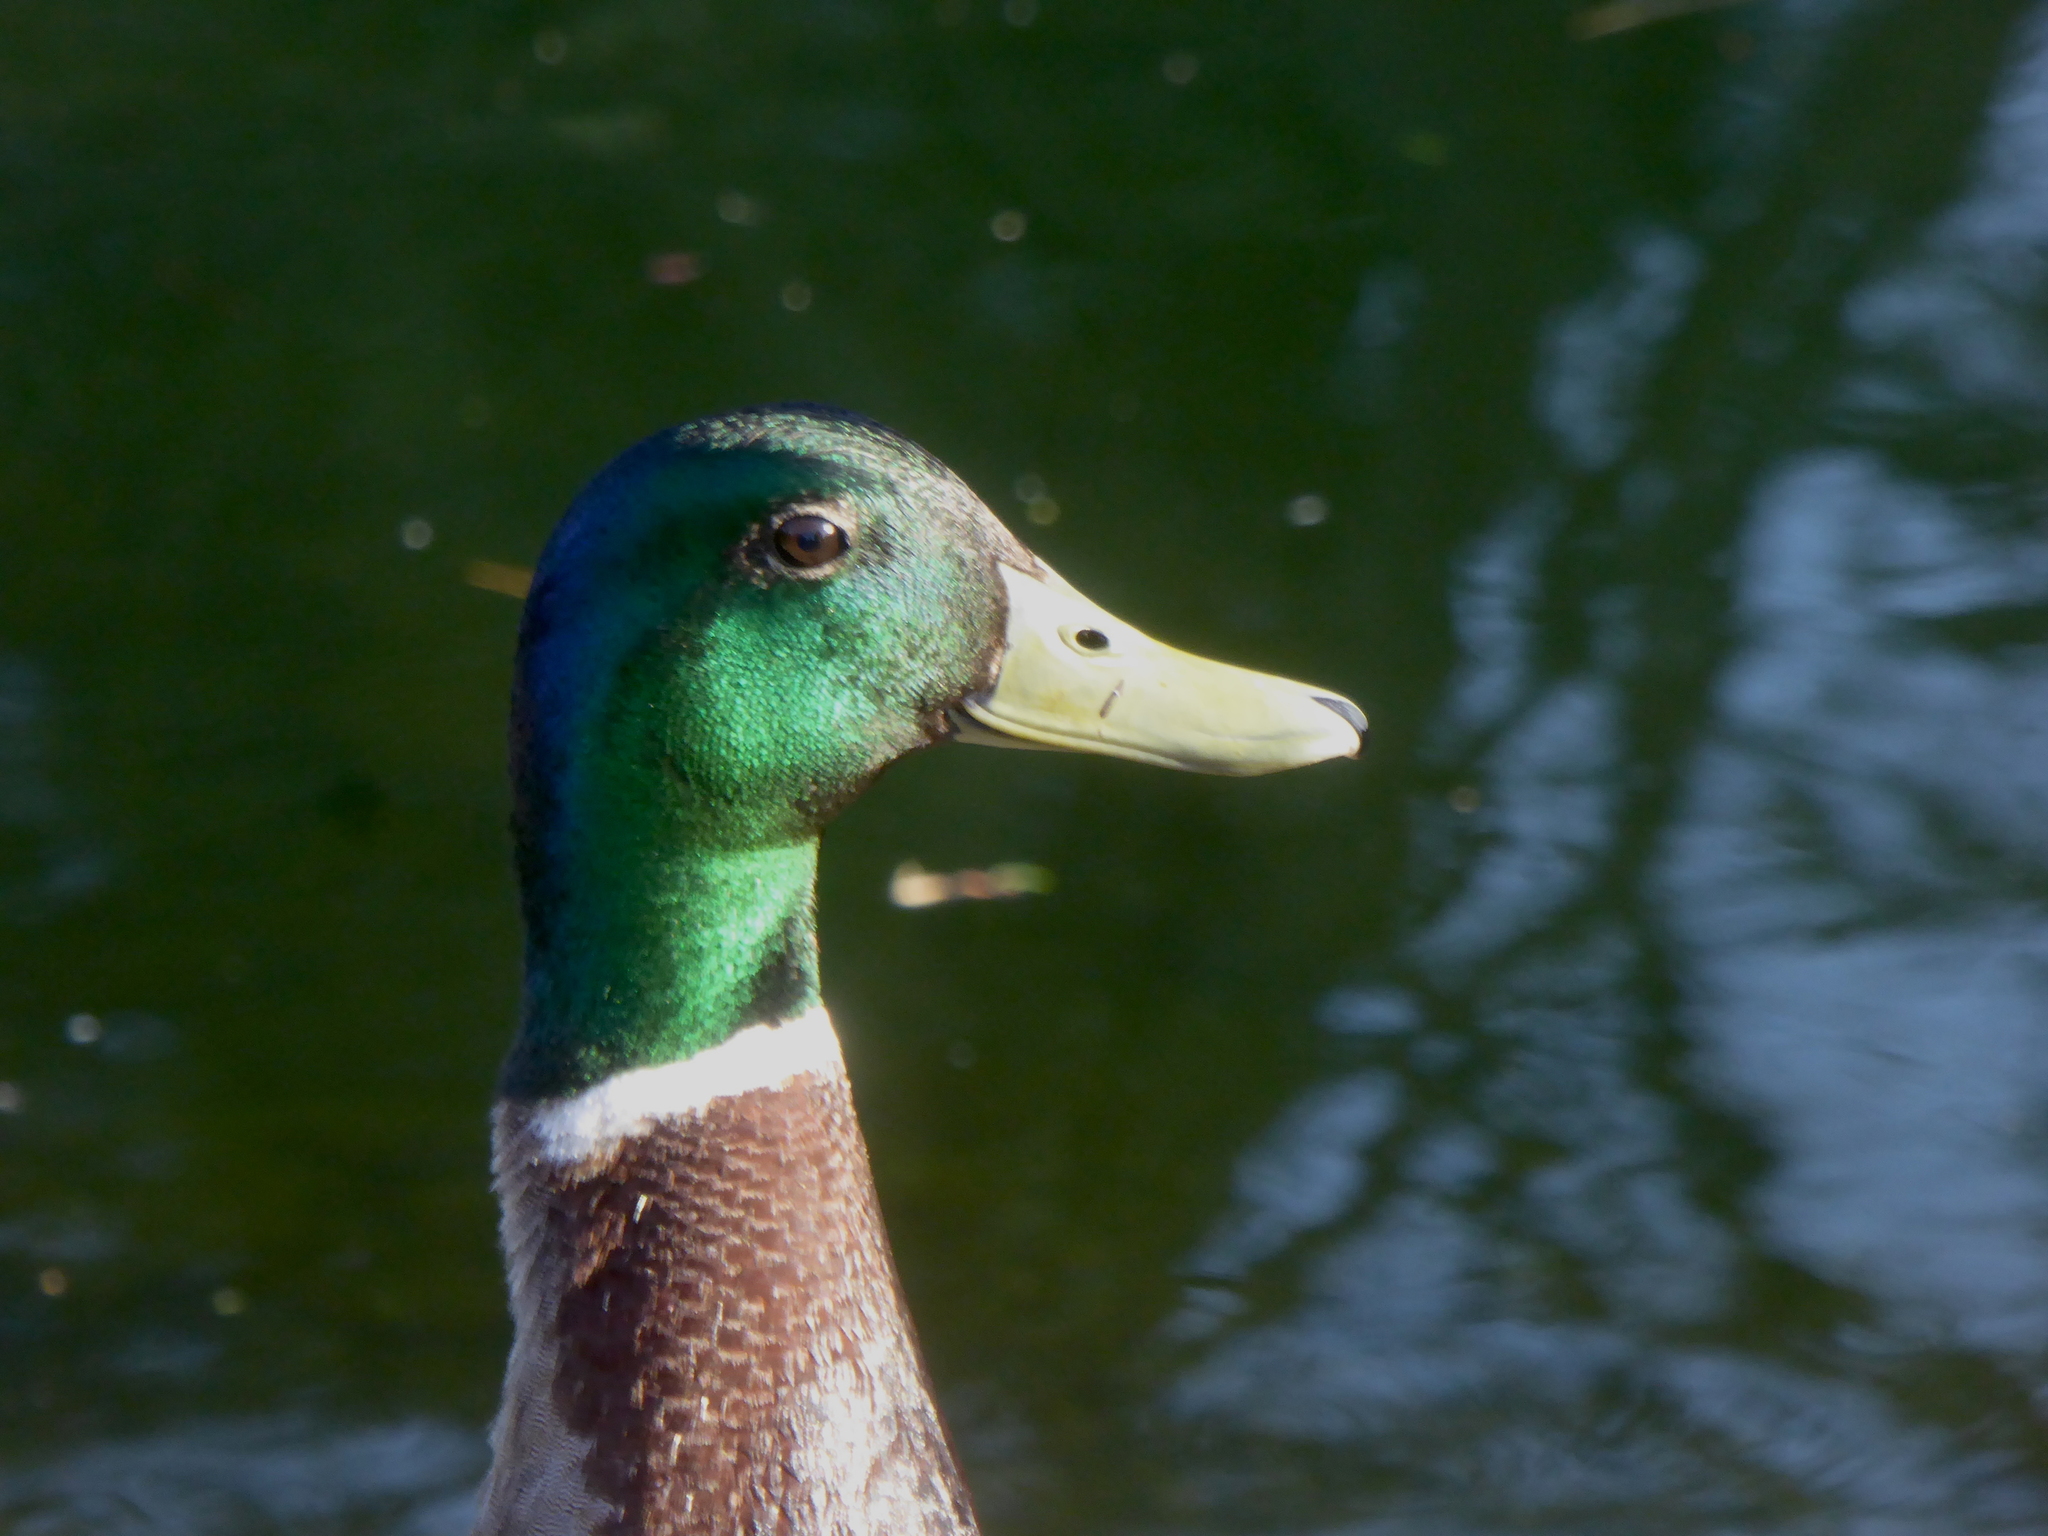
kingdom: Animalia
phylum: Chordata
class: Aves
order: Anseriformes
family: Anatidae
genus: Anas
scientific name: Anas platyrhynchos
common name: Mallard
